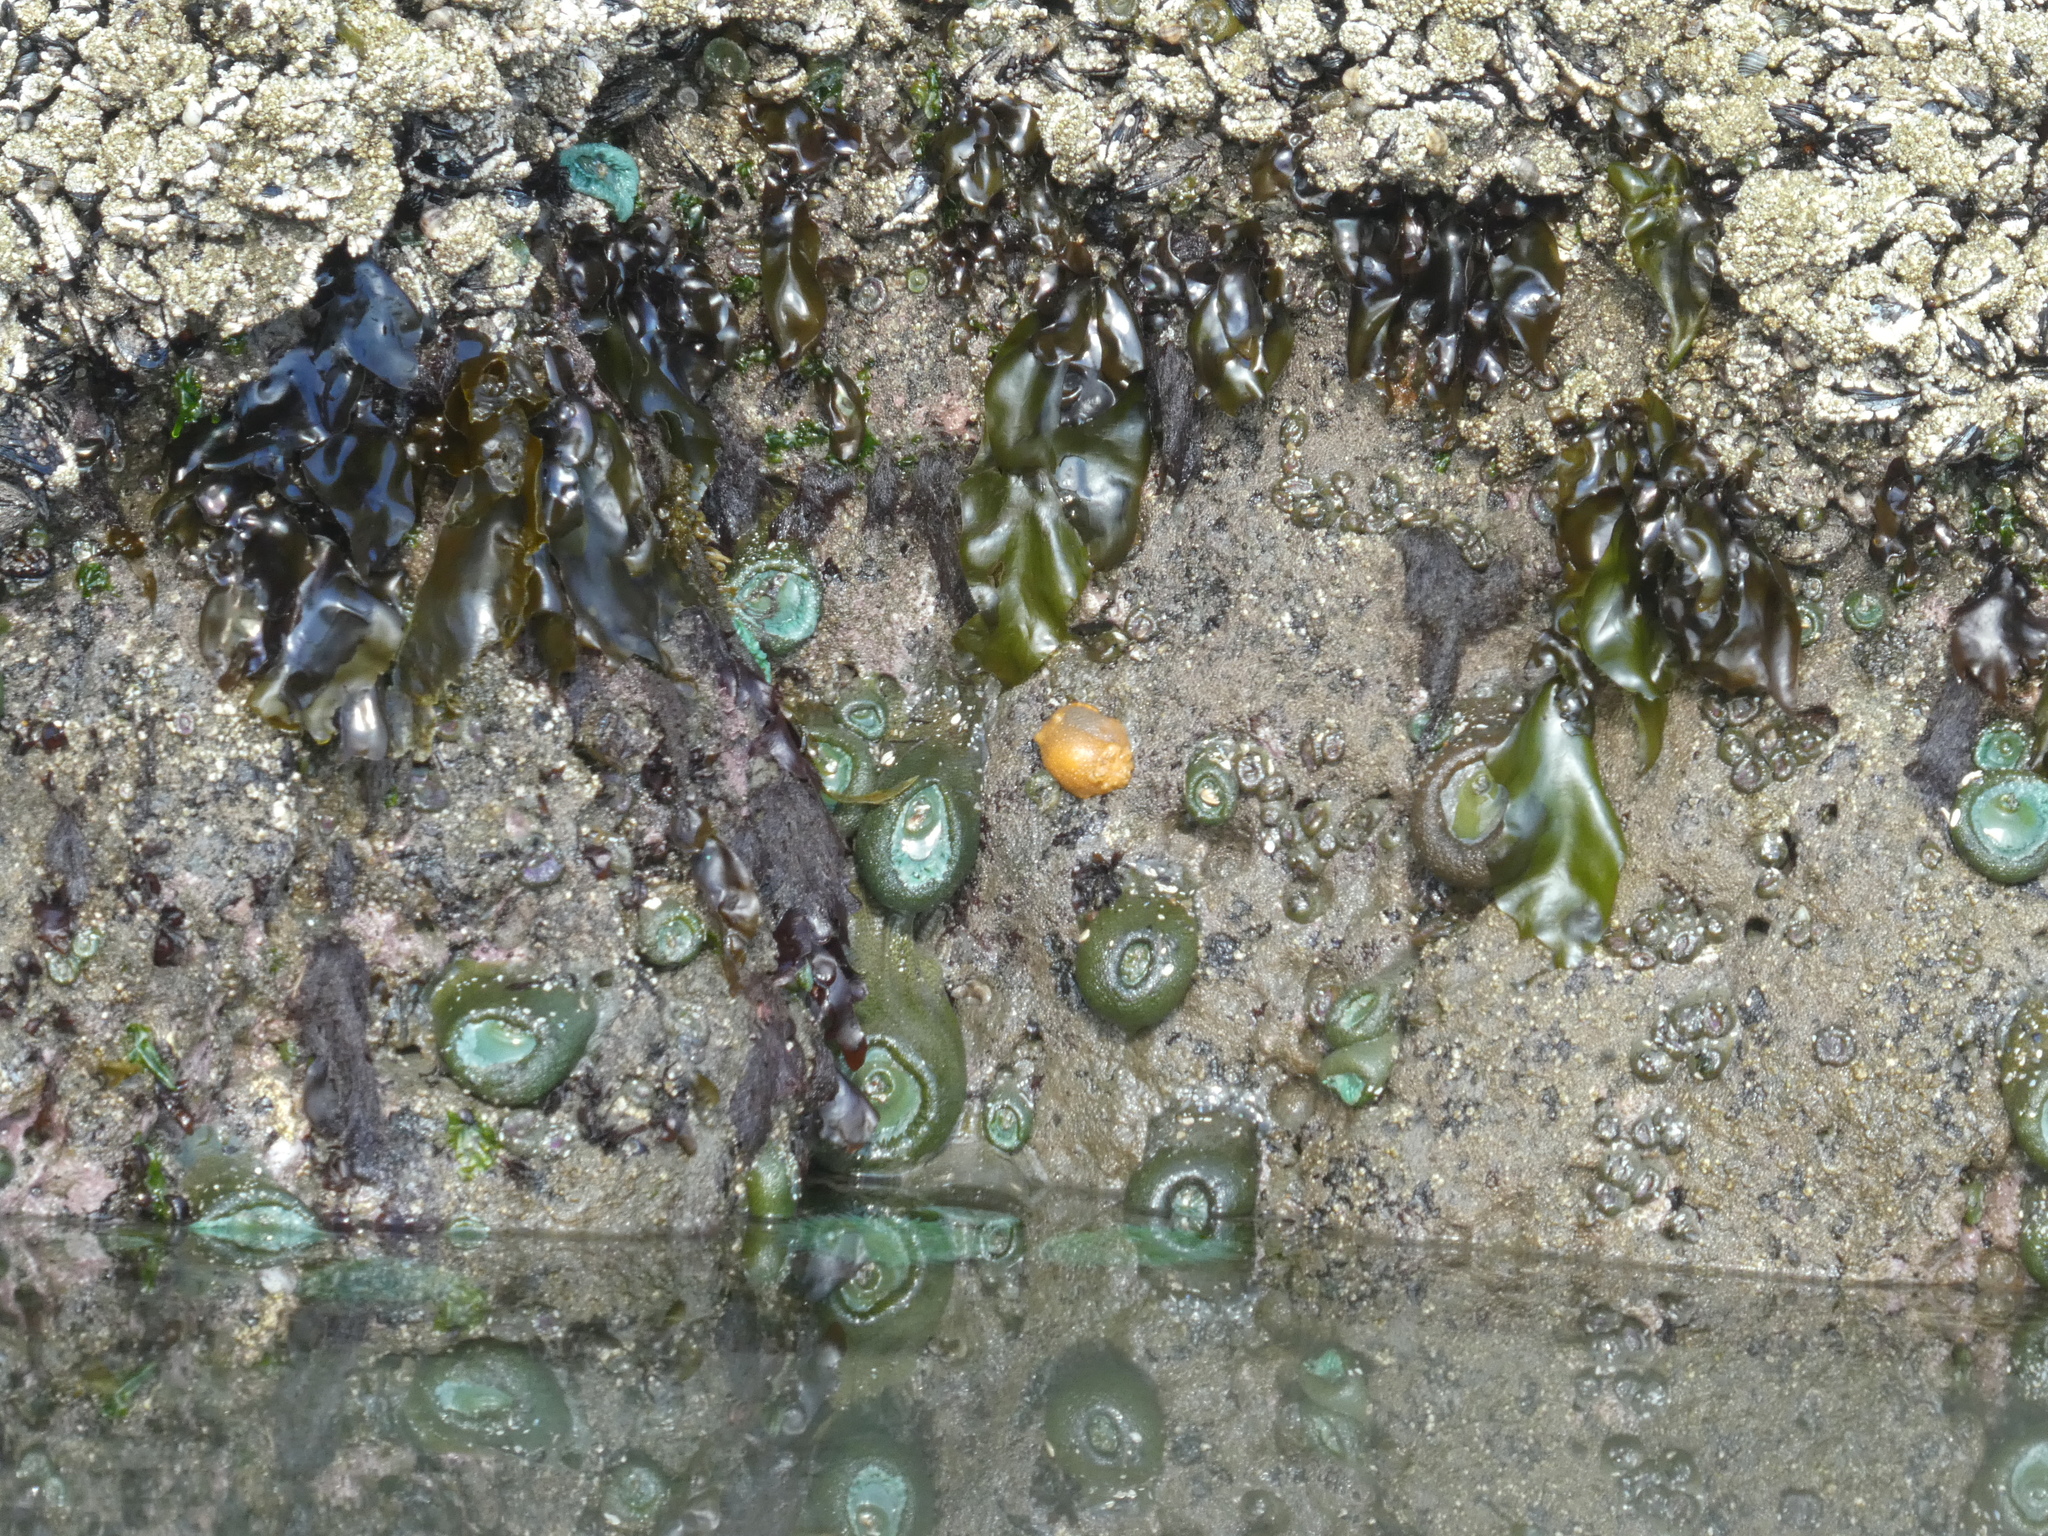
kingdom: Animalia
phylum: Mollusca
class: Gastropoda
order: Nudibranchia
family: Dorididae
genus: Doris
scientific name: Doris montereyensis
